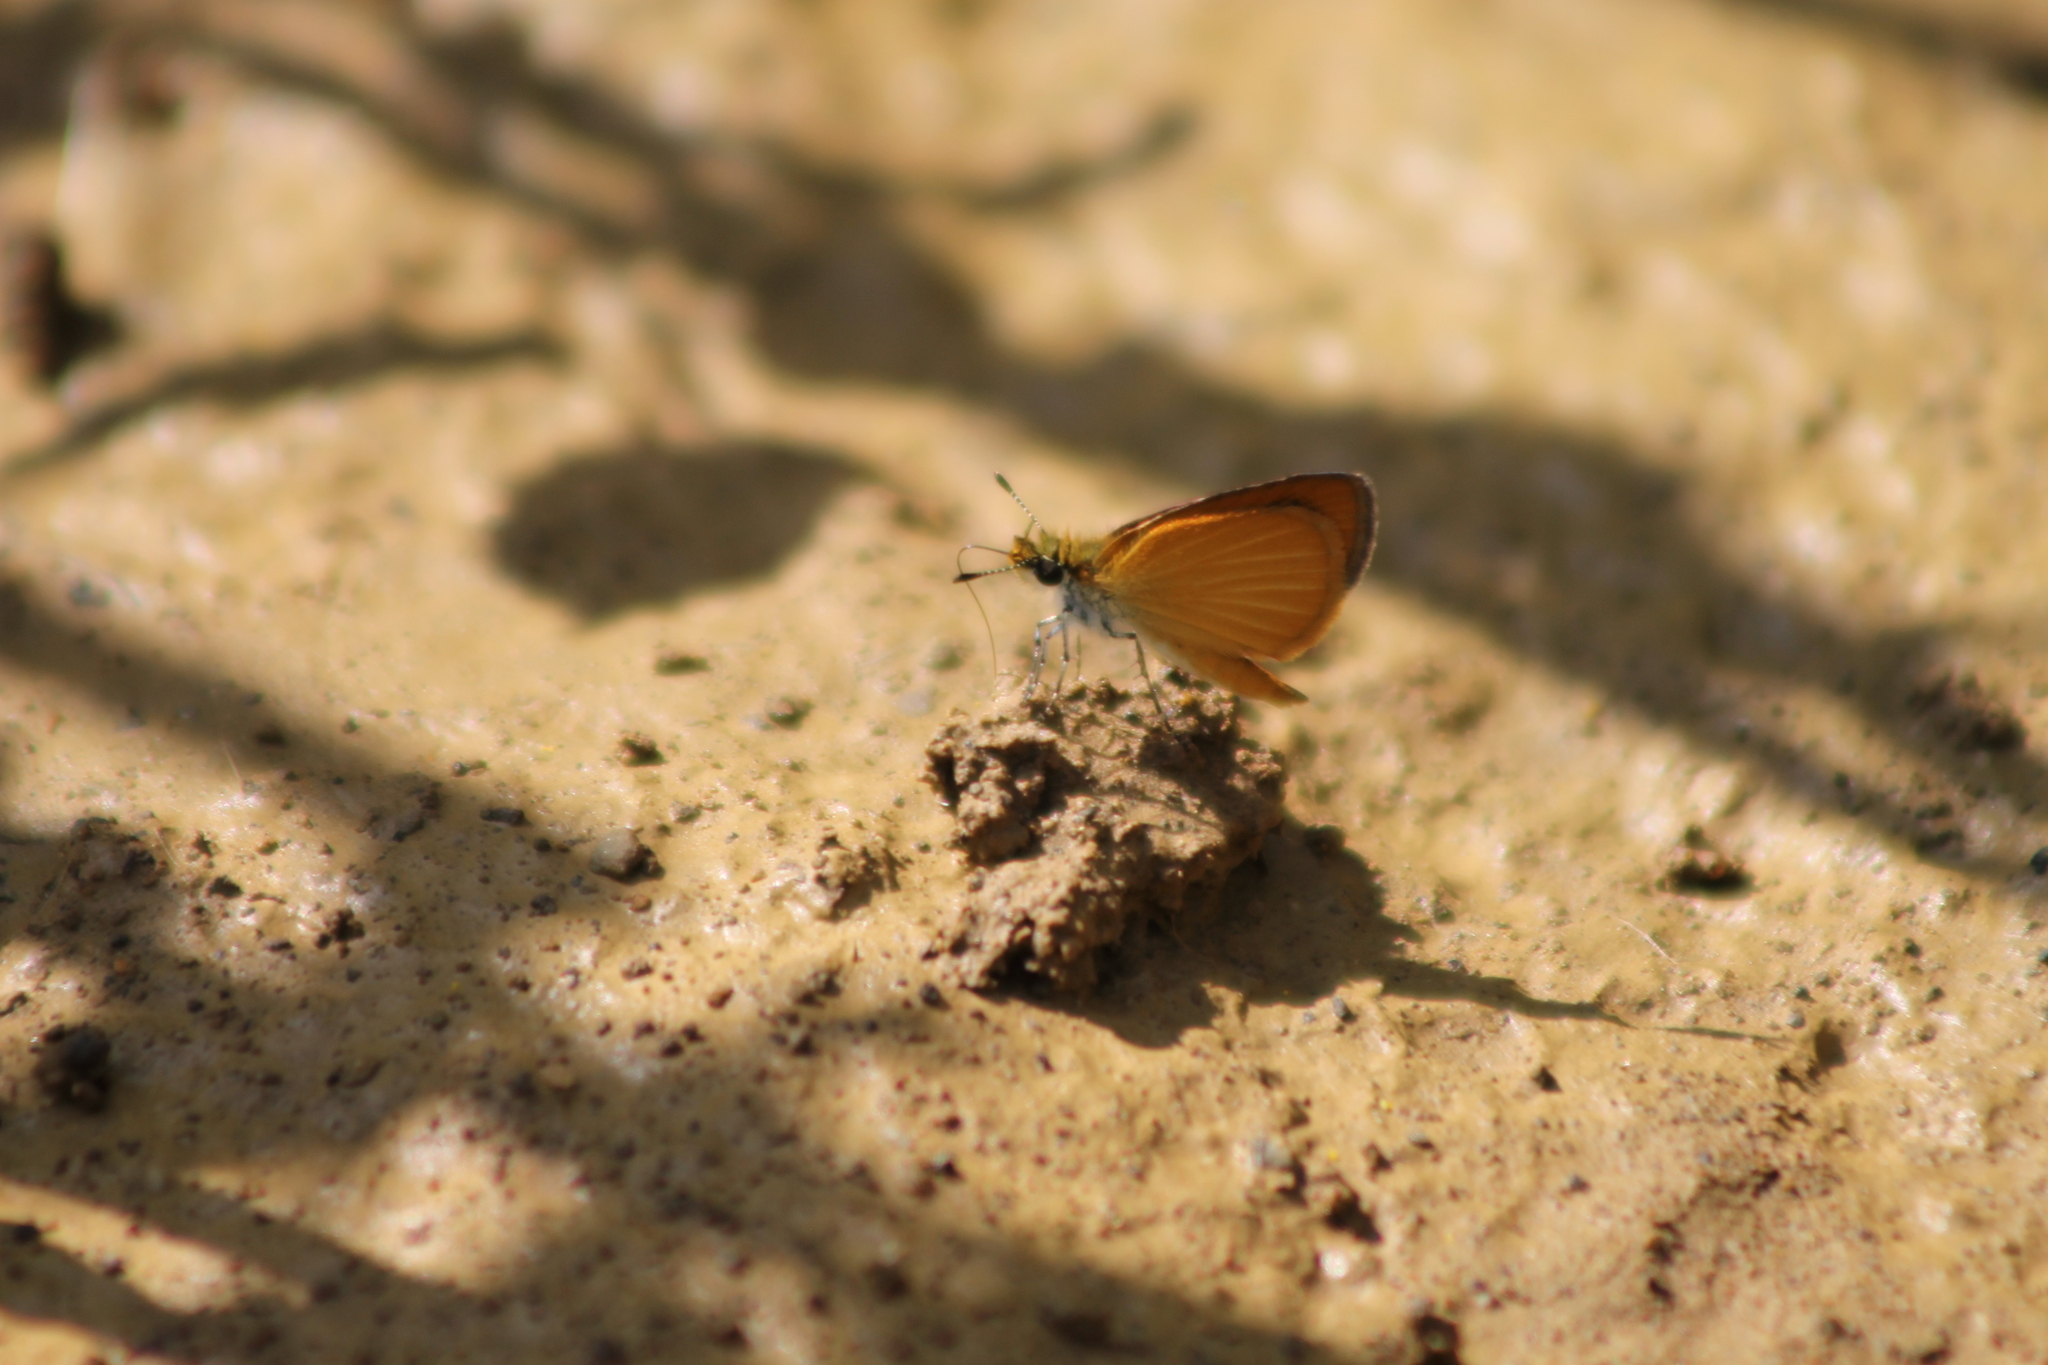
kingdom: Animalia
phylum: Arthropoda
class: Insecta
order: Lepidoptera
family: Hesperiidae
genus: Ancyloxypha
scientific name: Ancyloxypha numitor
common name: Least skipper
